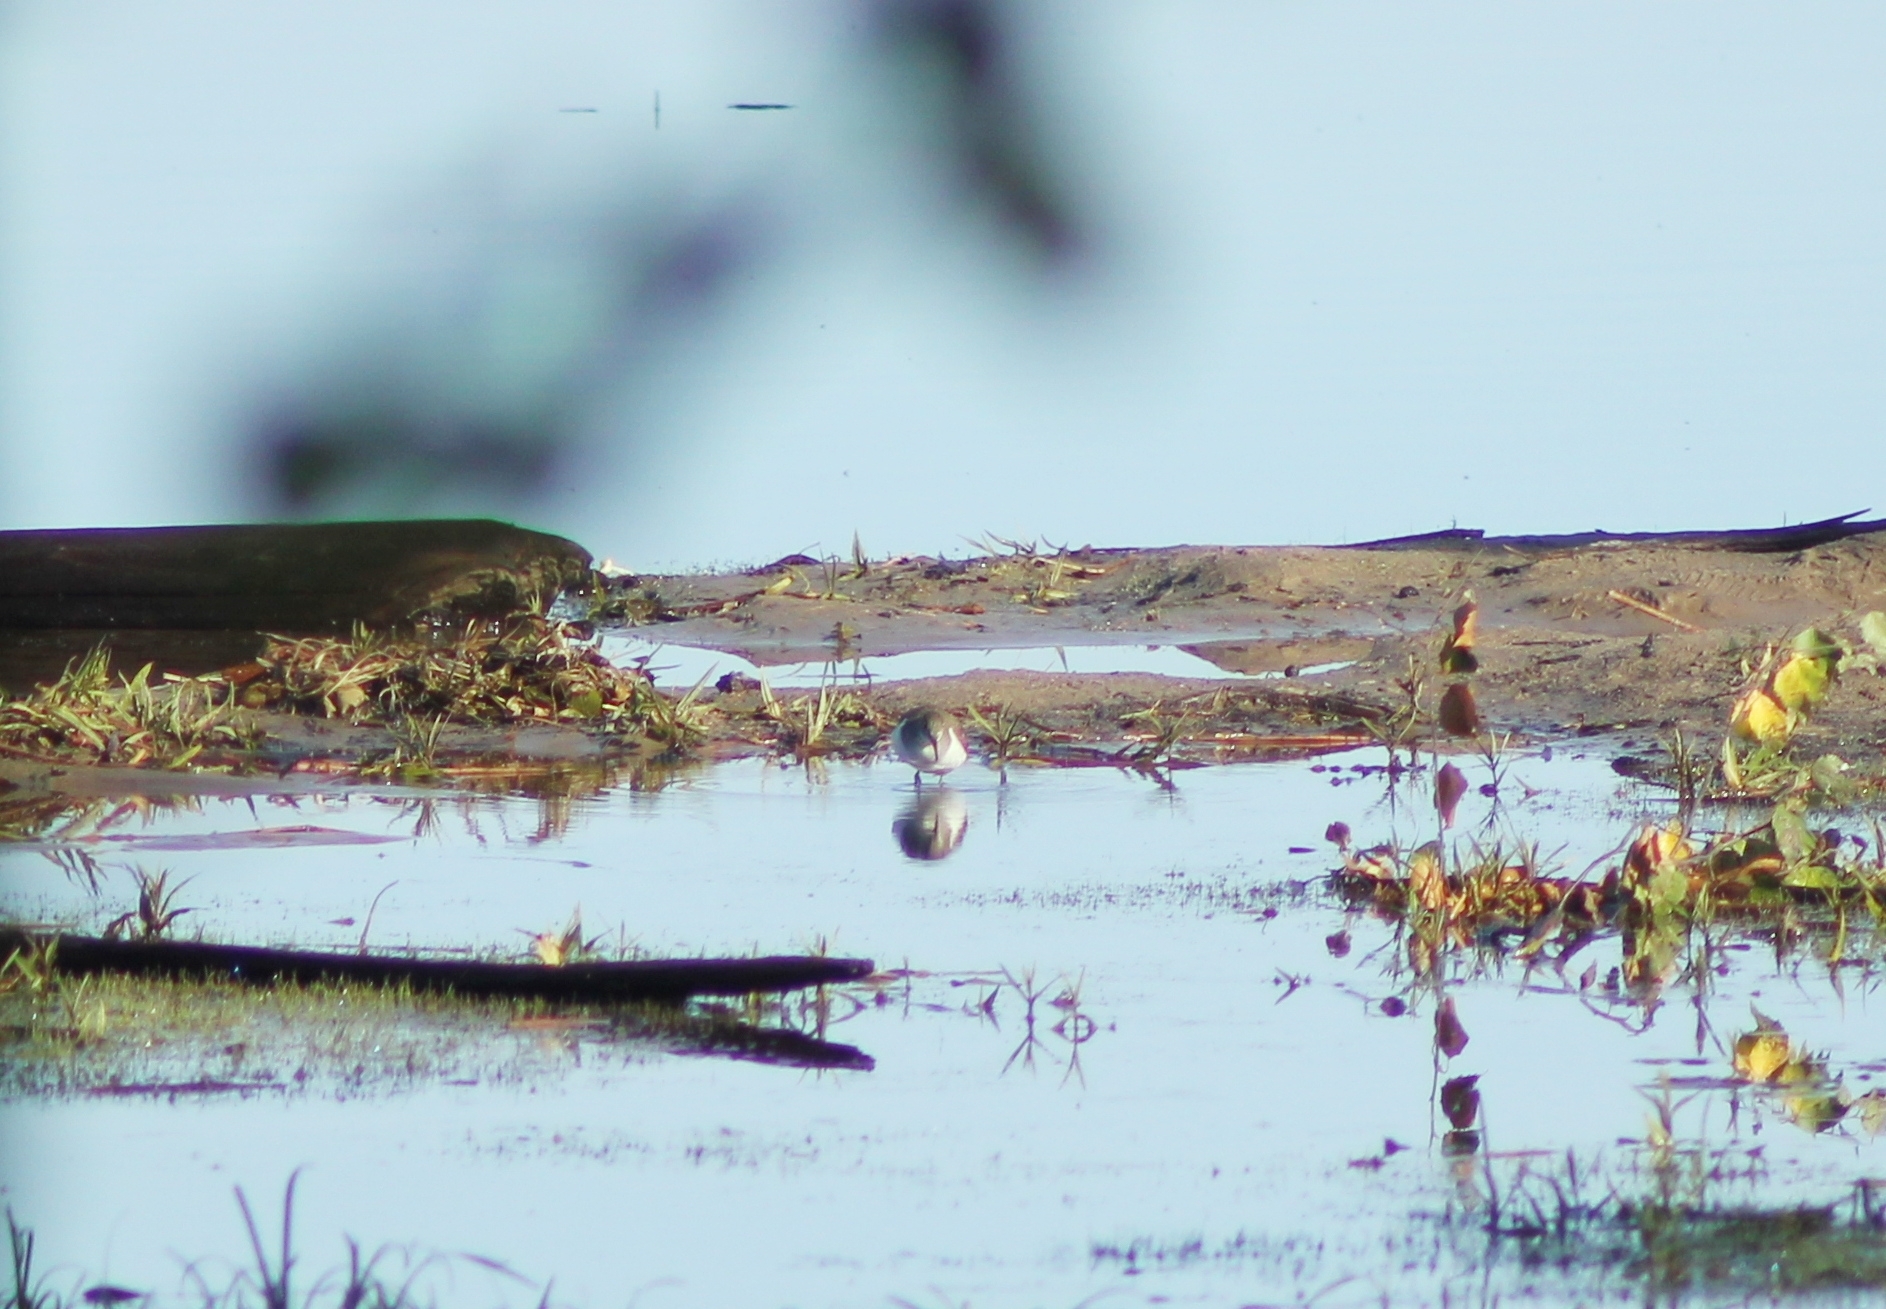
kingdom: Animalia
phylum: Chordata
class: Aves
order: Charadriiformes
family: Scolopacidae
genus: Actitis
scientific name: Actitis hypoleucos
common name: Common sandpiper
